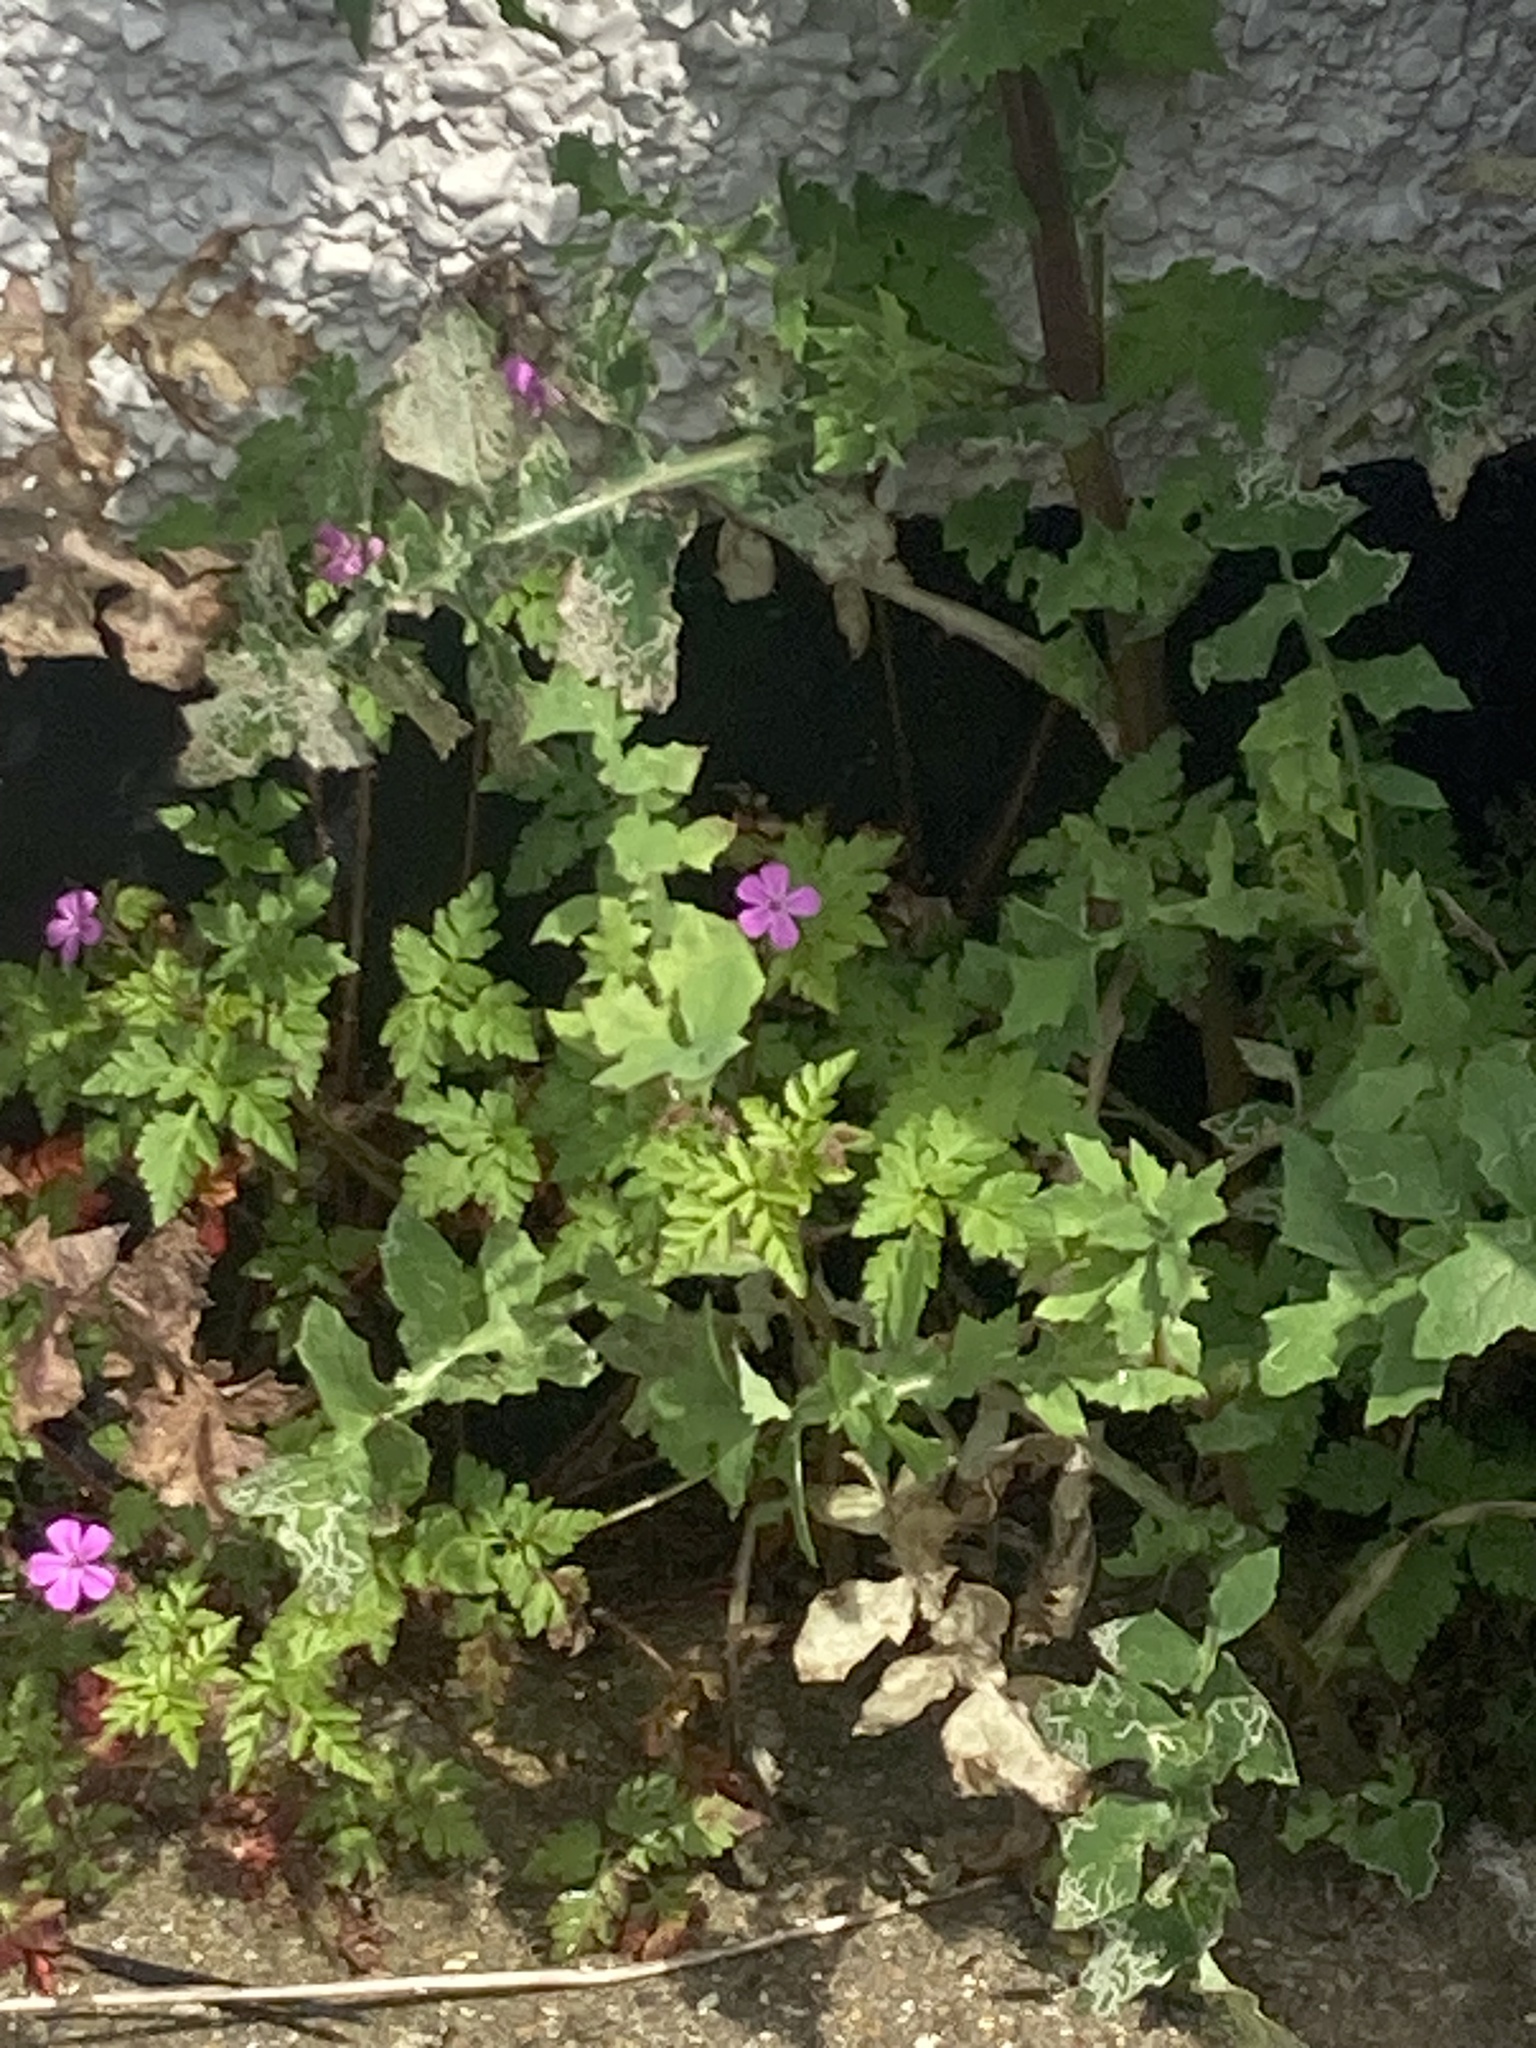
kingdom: Plantae
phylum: Tracheophyta
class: Magnoliopsida
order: Geraniales
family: Geraniaceae
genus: Geranium
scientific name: Geranium robertianum
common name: Herb-robert
